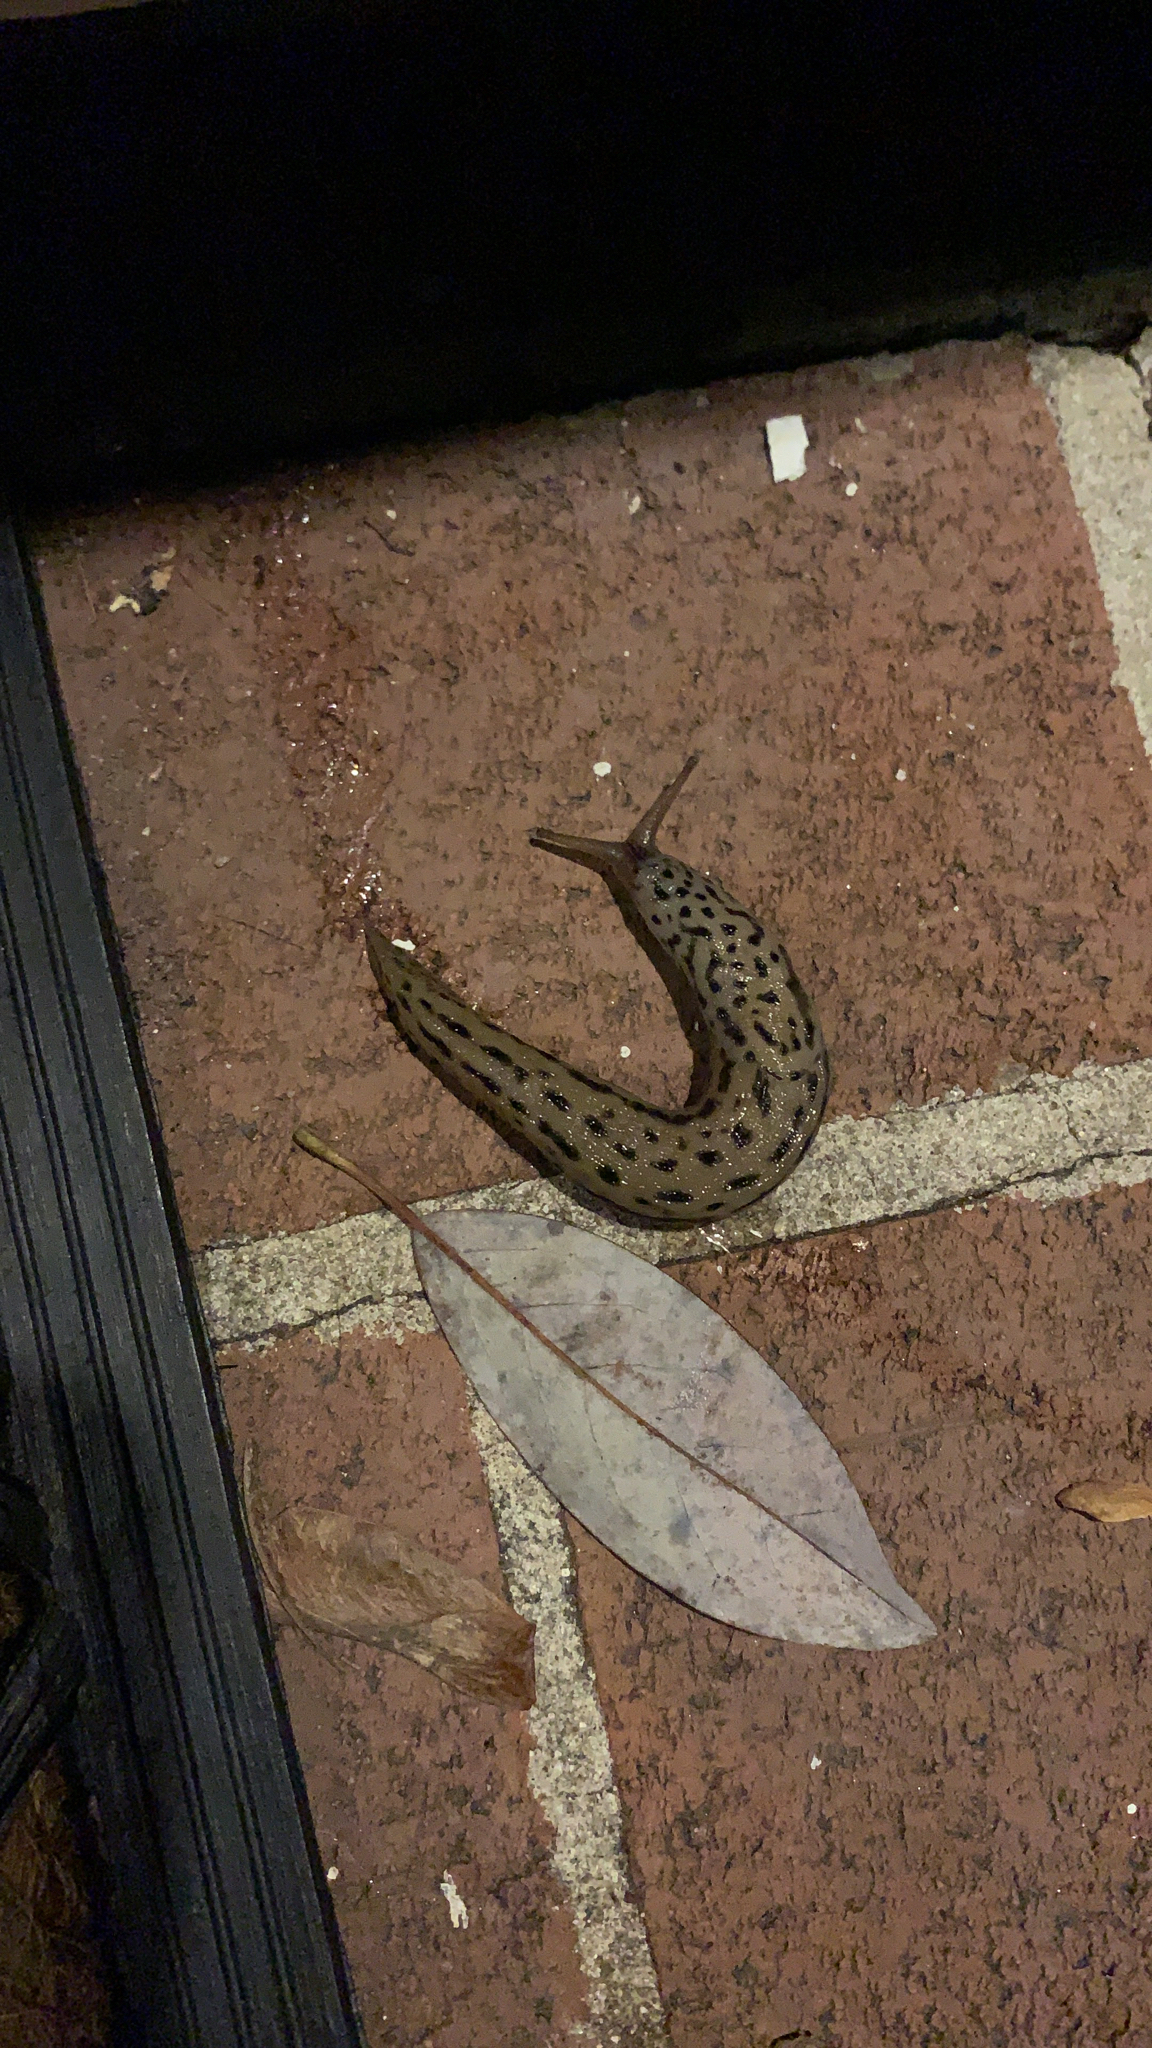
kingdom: Animalia
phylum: Mollusca
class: Gastropoda
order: Stylommatophora
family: Limacidae
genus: Limax
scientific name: Limax maximus
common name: Great grey slug
